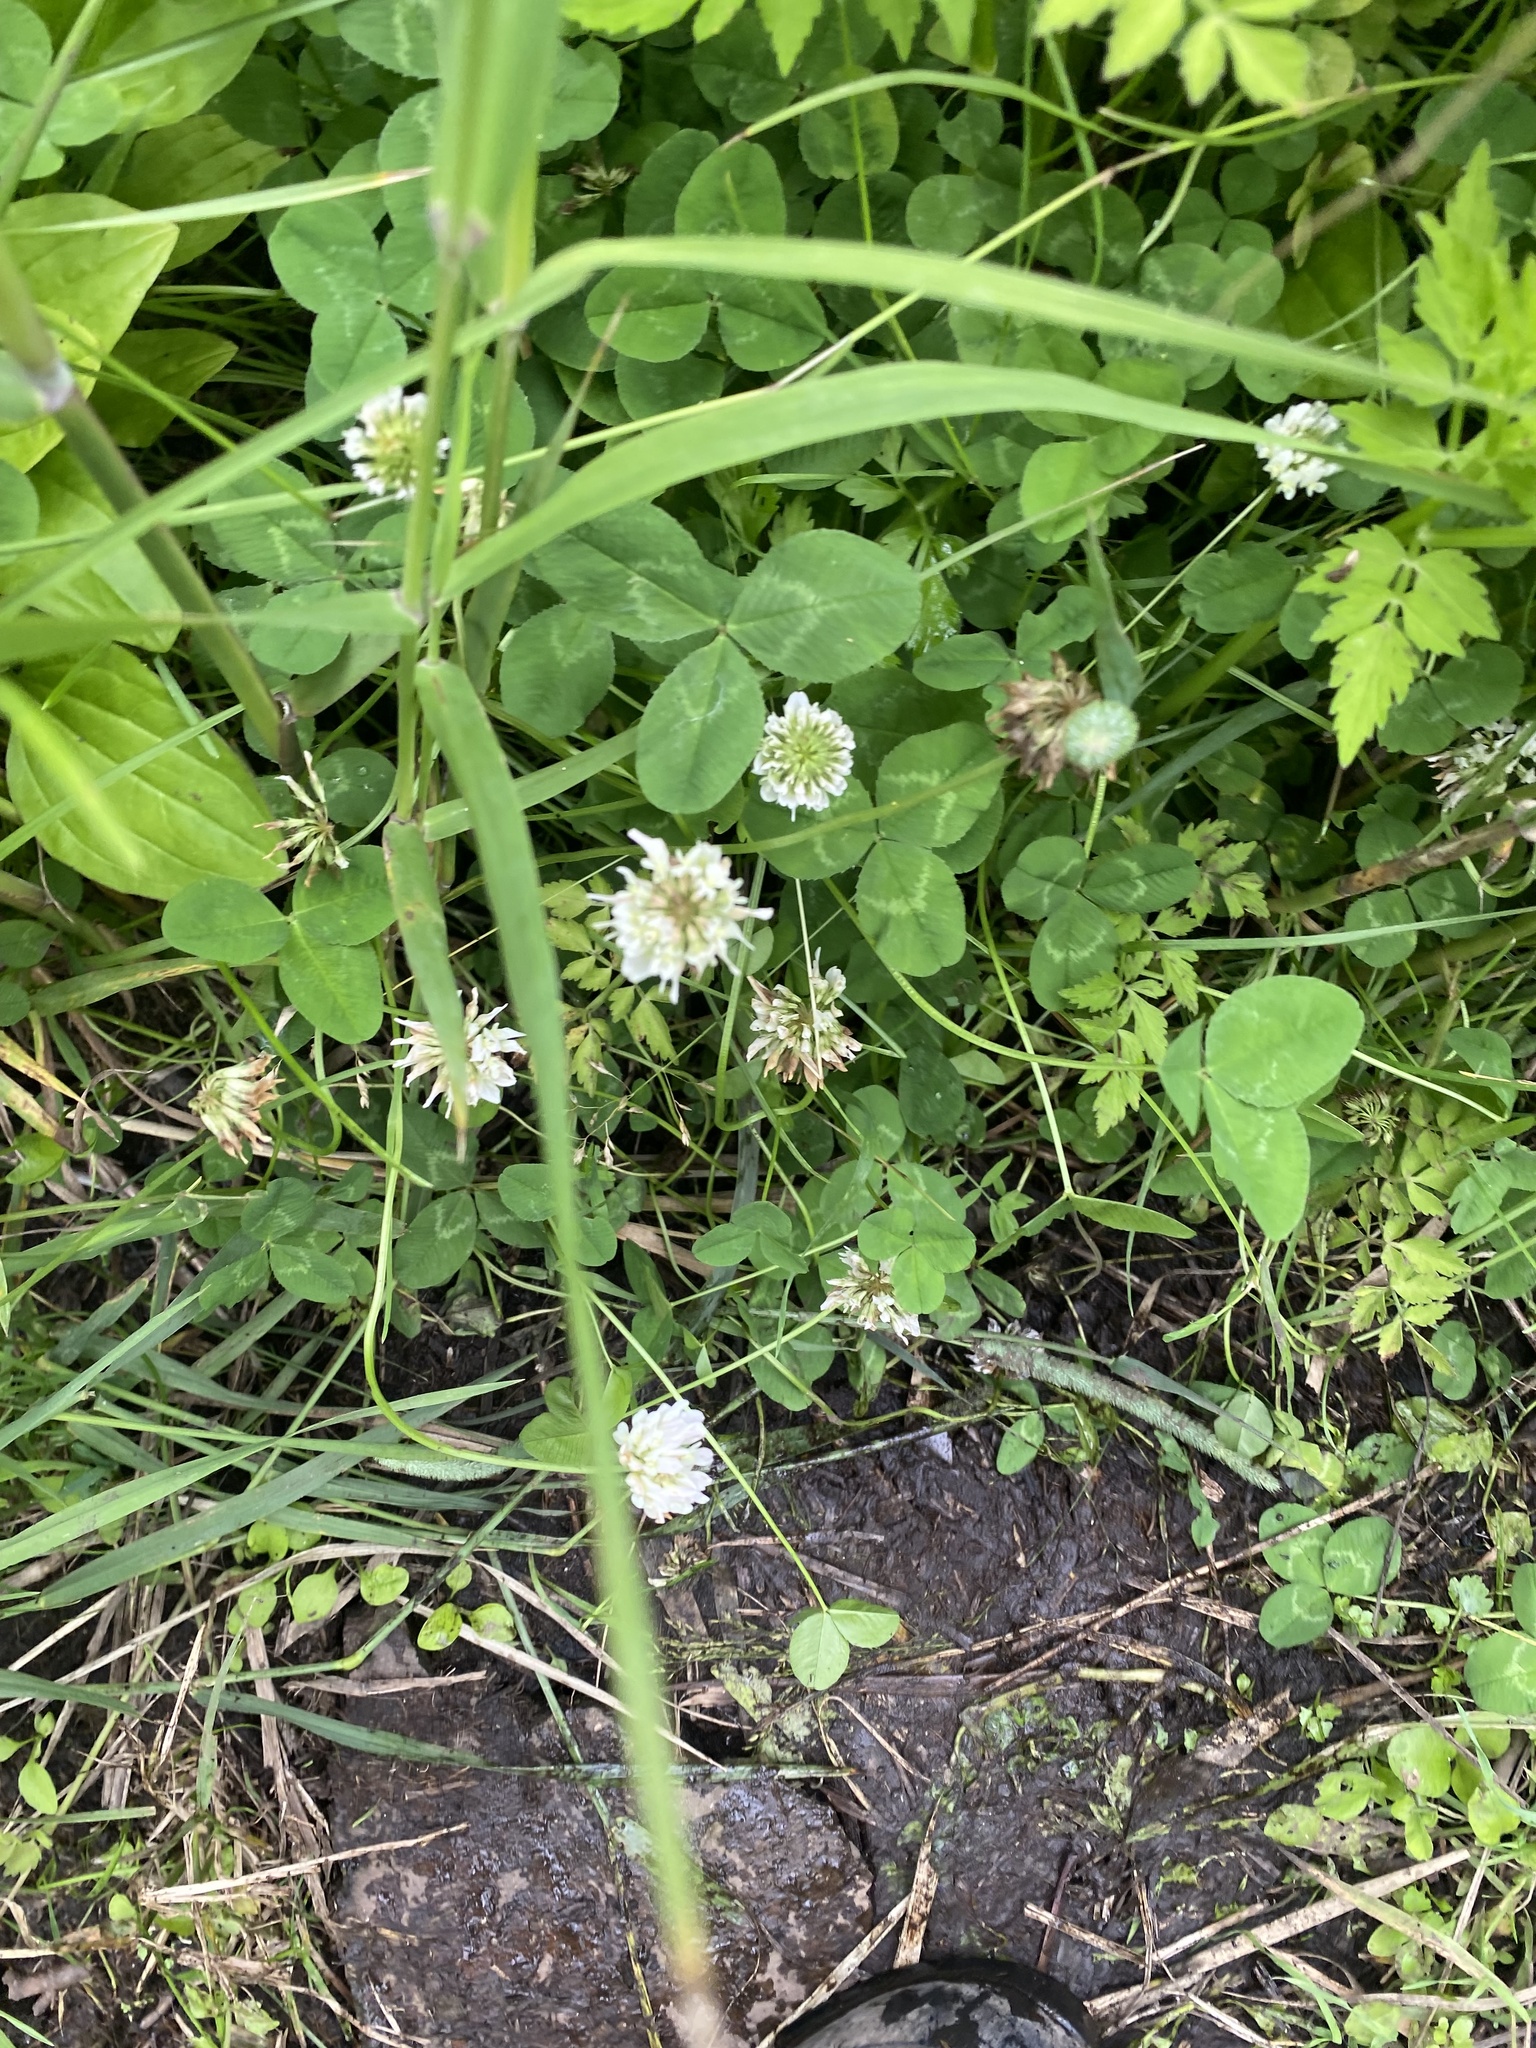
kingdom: Plantae
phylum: Tracheophyta
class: Magnoliopsida
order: Fabales
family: Fabaceae
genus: Trifolium
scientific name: Trifolium repens
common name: White clover
